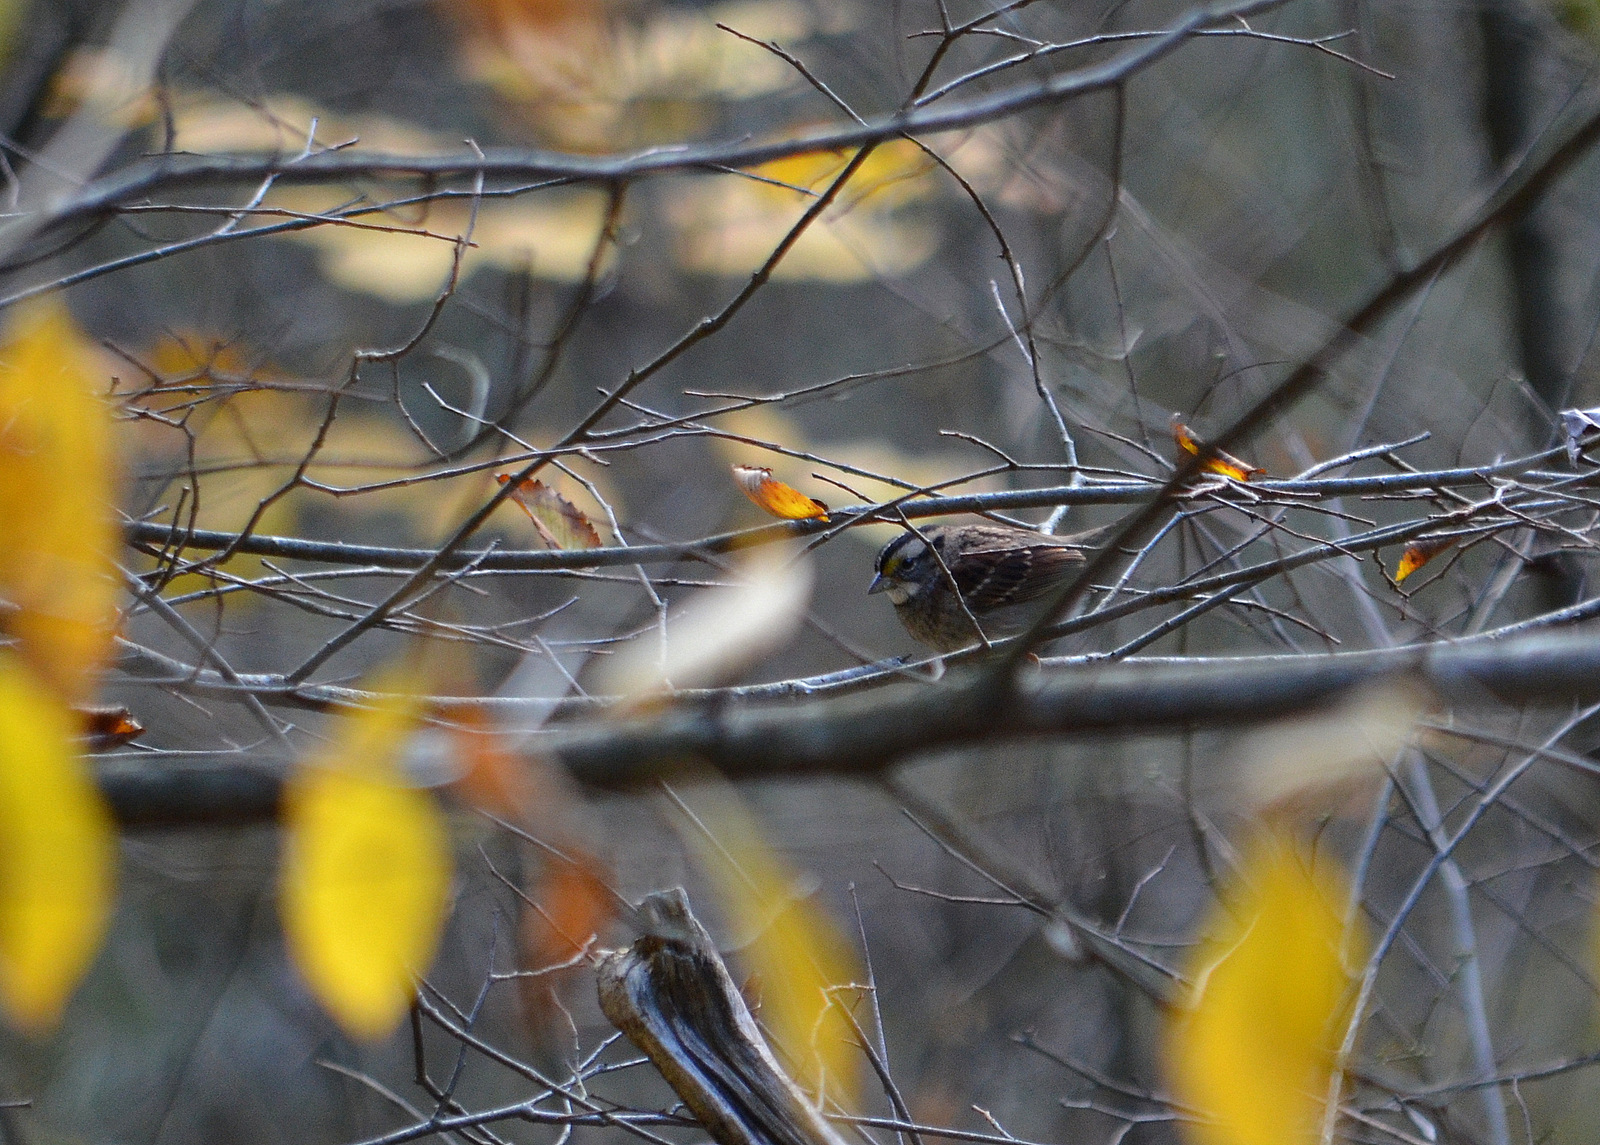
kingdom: Animalia
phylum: Chordata
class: Aves
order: Passeriformes
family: Passerellidae
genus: Zonotrichia
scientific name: Zonotrichia albicollis
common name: White-throated sparrow
